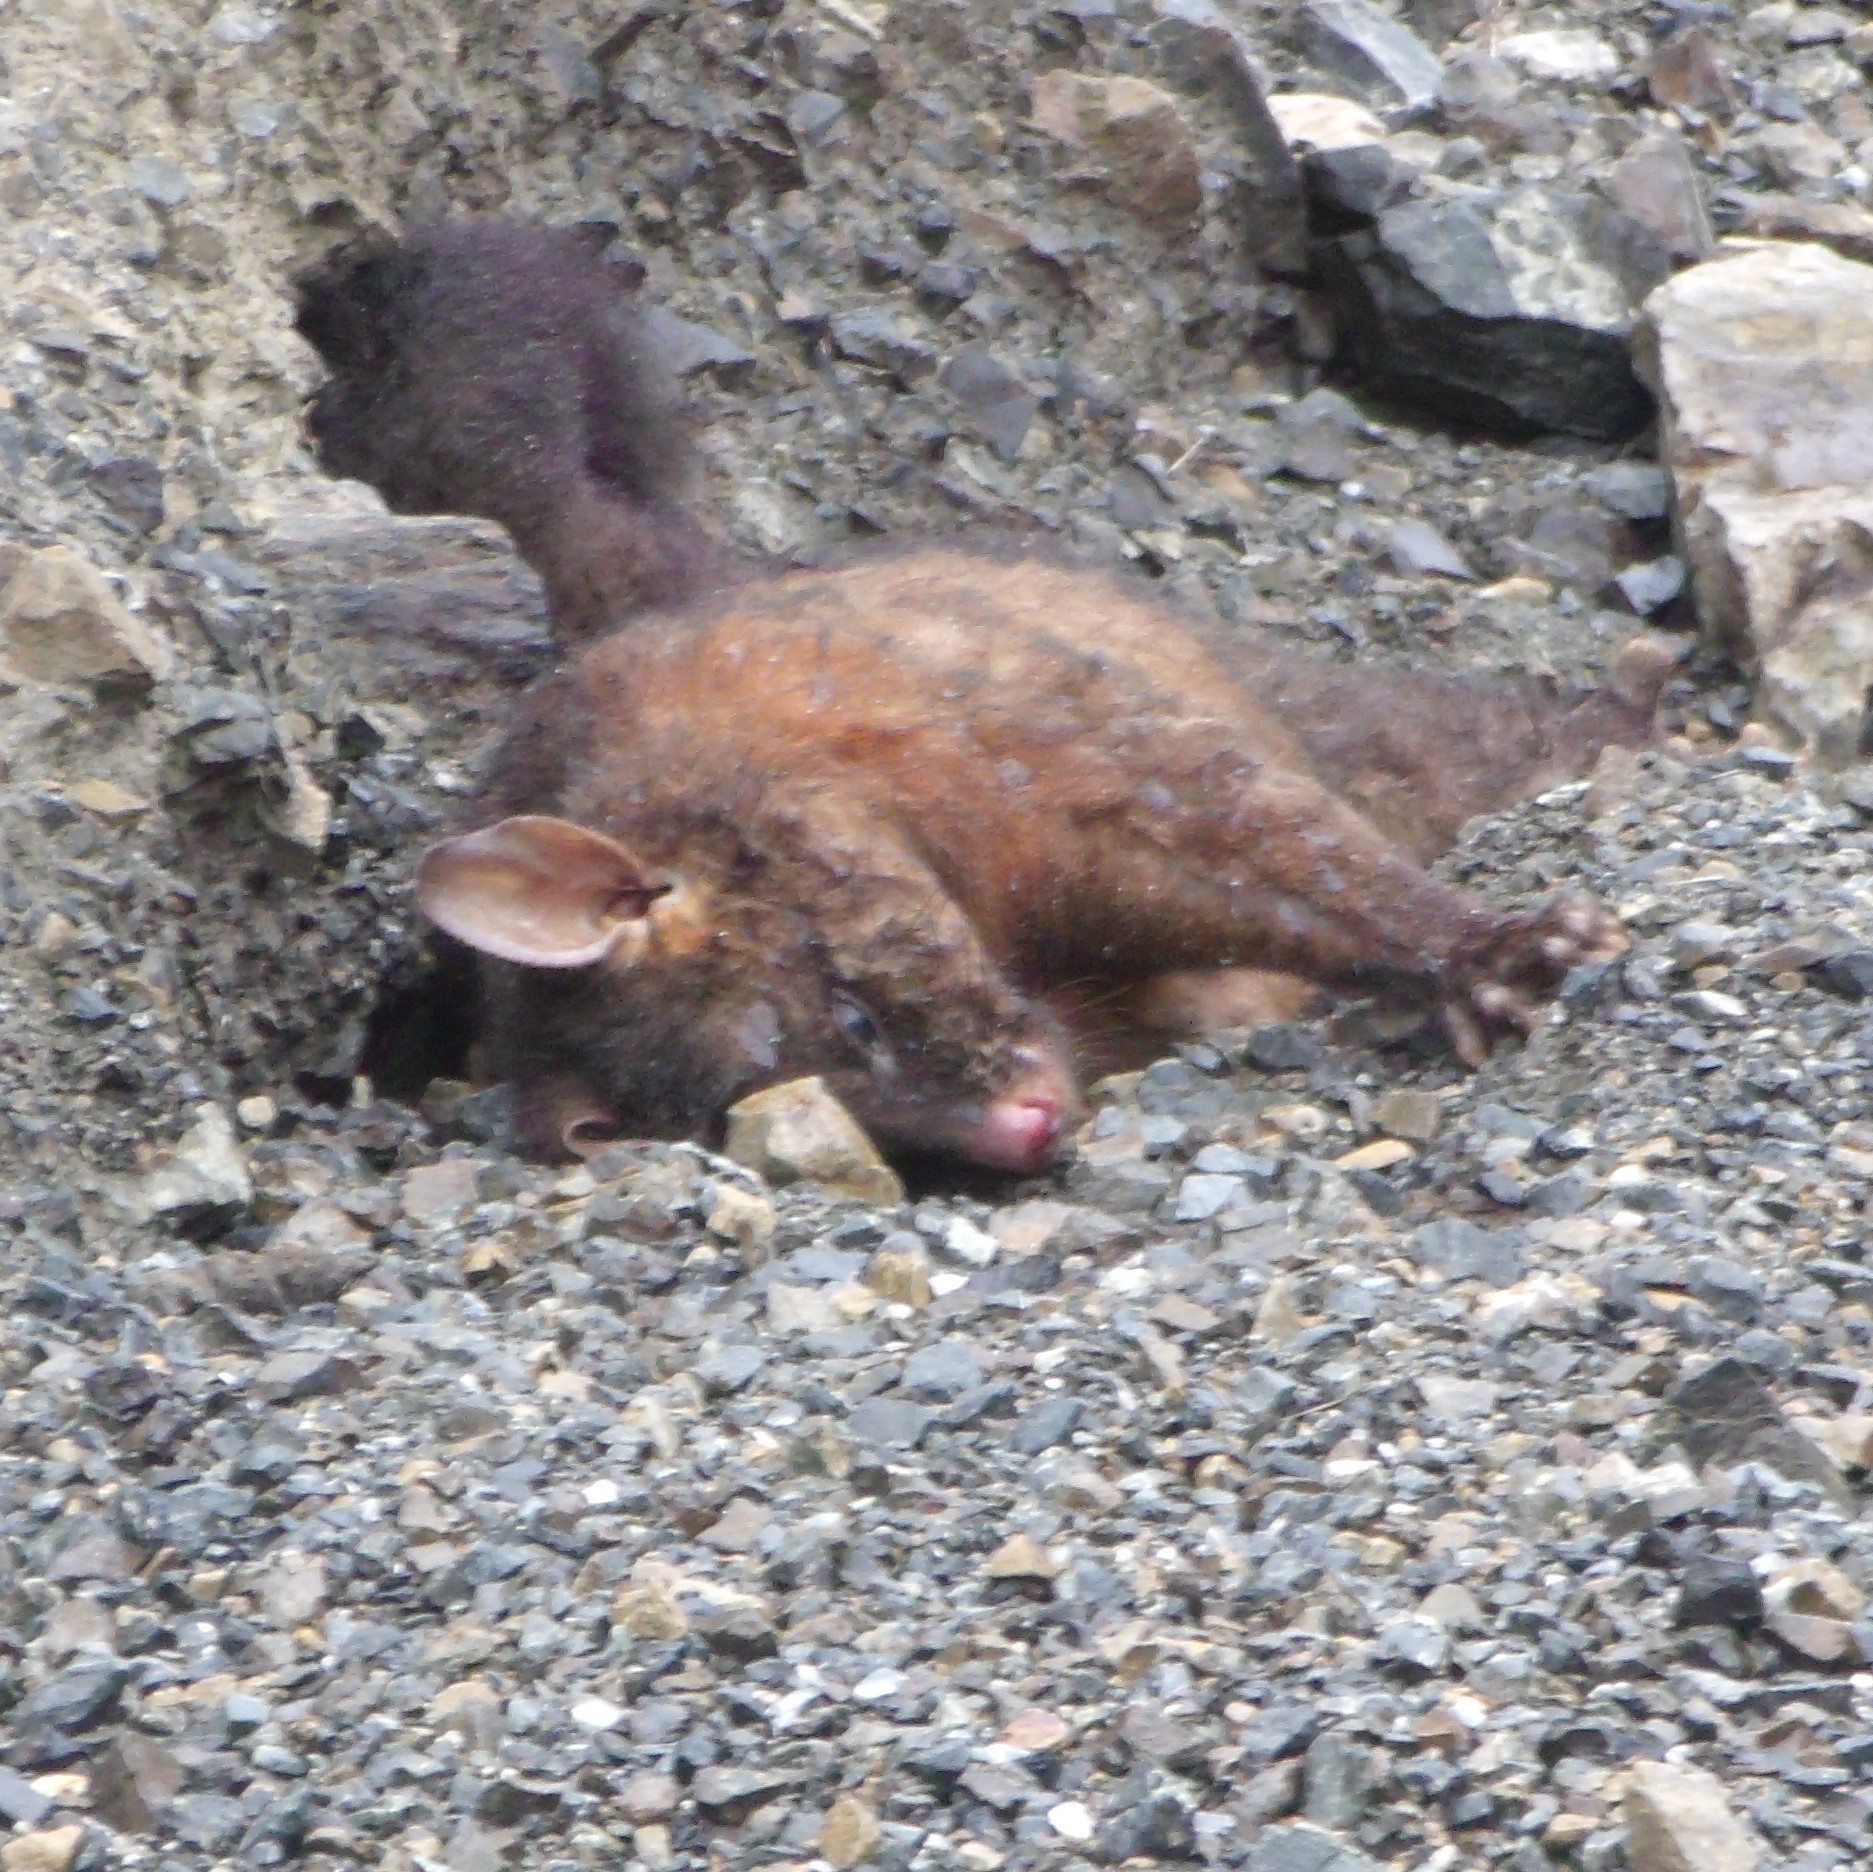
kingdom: Animalia
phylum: Chordata
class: Mammalia
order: Diprotodontia
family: Phalangeridae
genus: Trichosurus
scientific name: Trichosurus vulpecula
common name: Common brushtail
